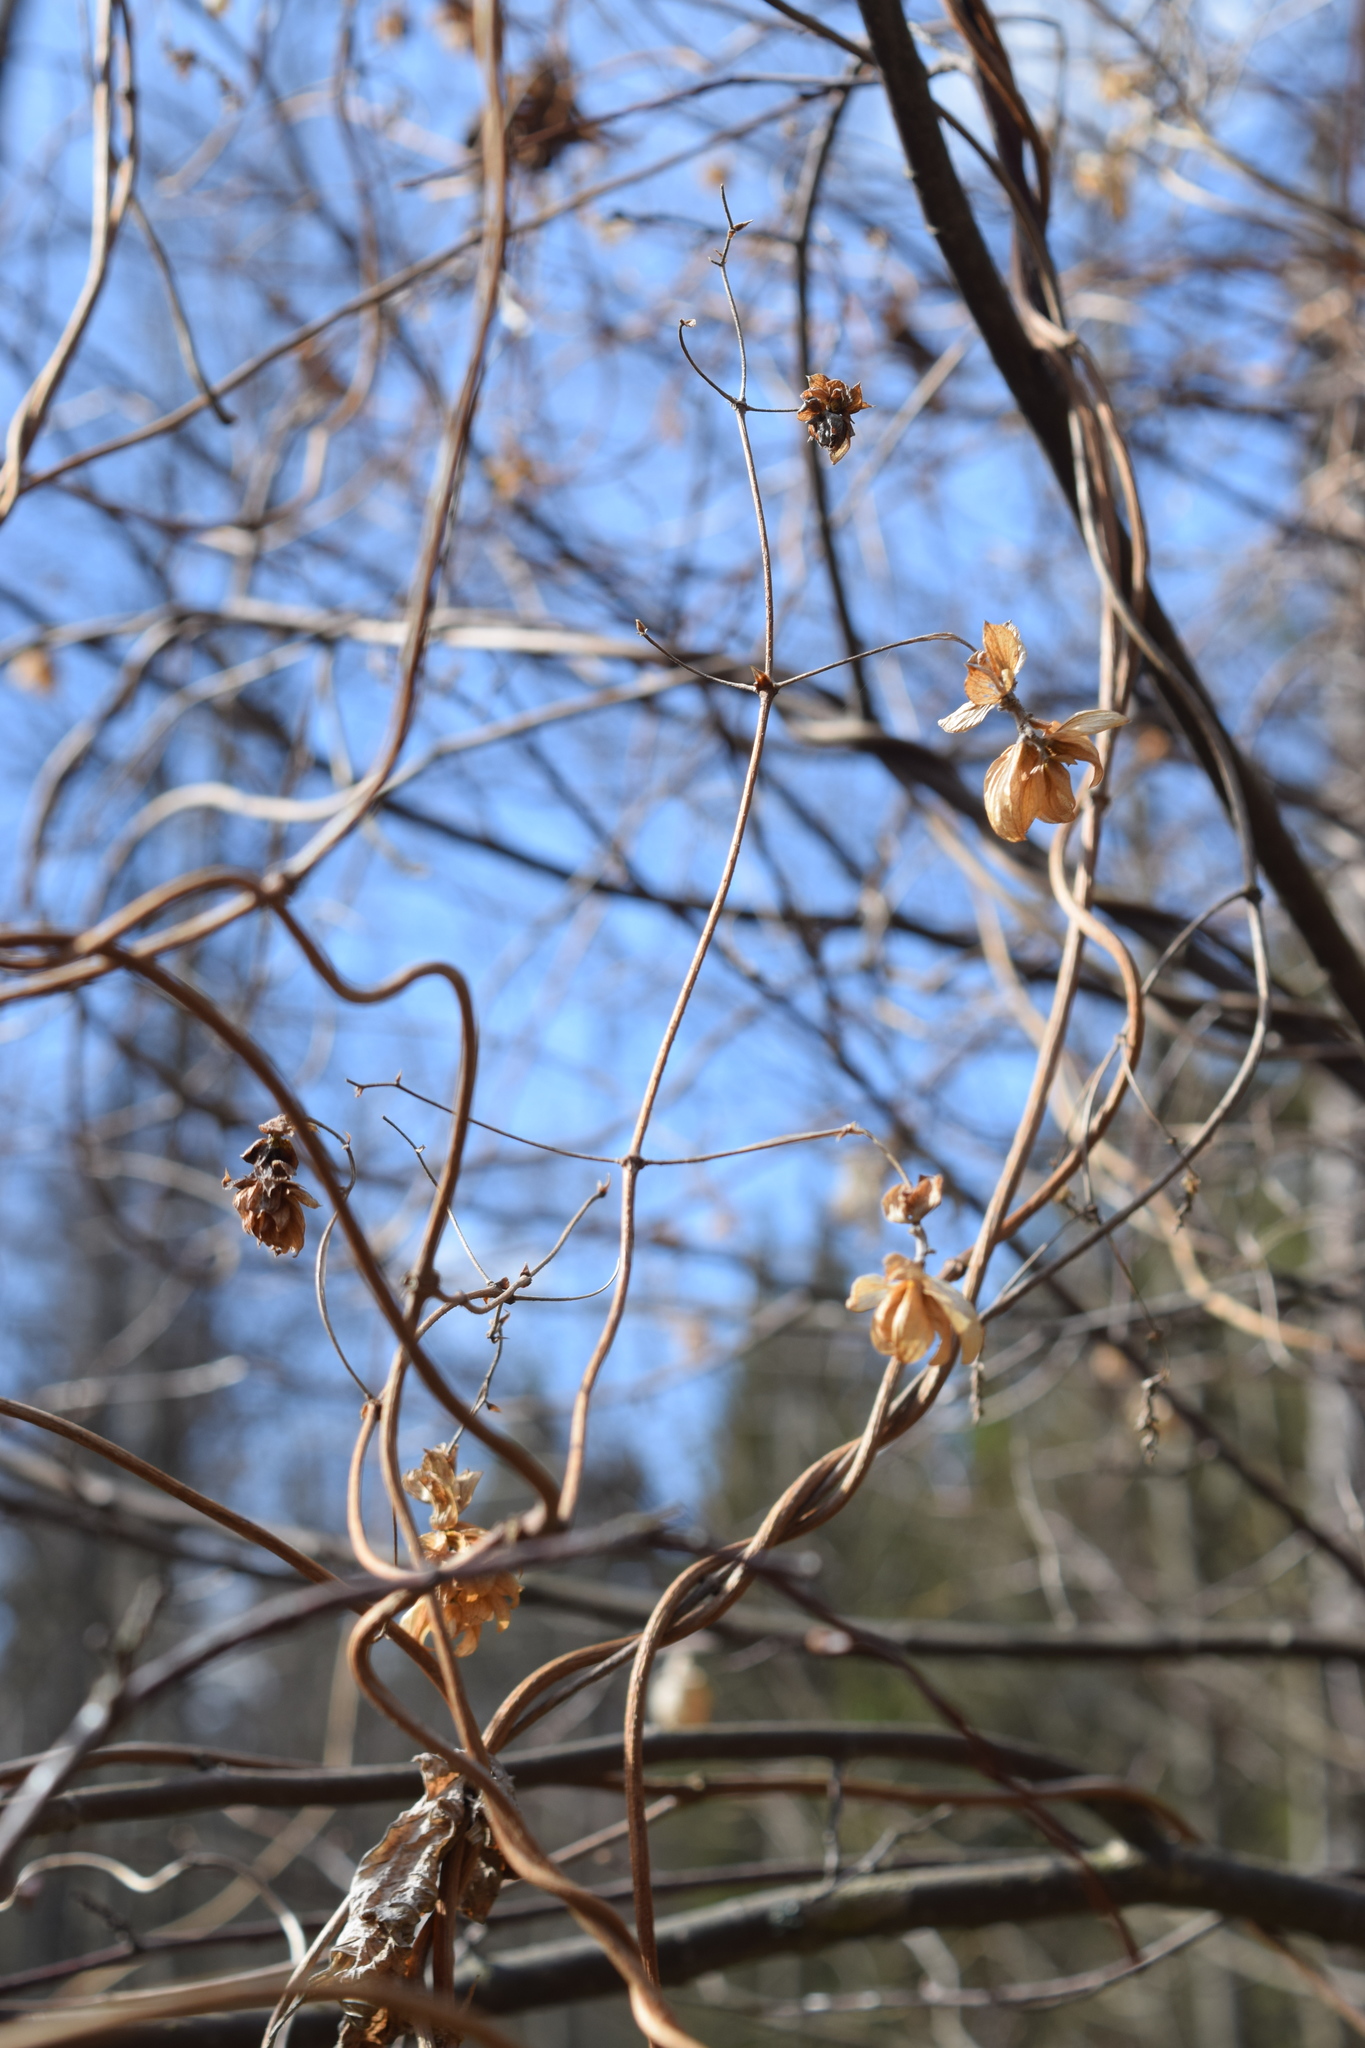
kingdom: Plantae
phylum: Tracheophyta
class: Magnoliopsida
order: Rosales
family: Cannabaceae
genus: Humulus
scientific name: Humulus lupulus
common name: Hop
